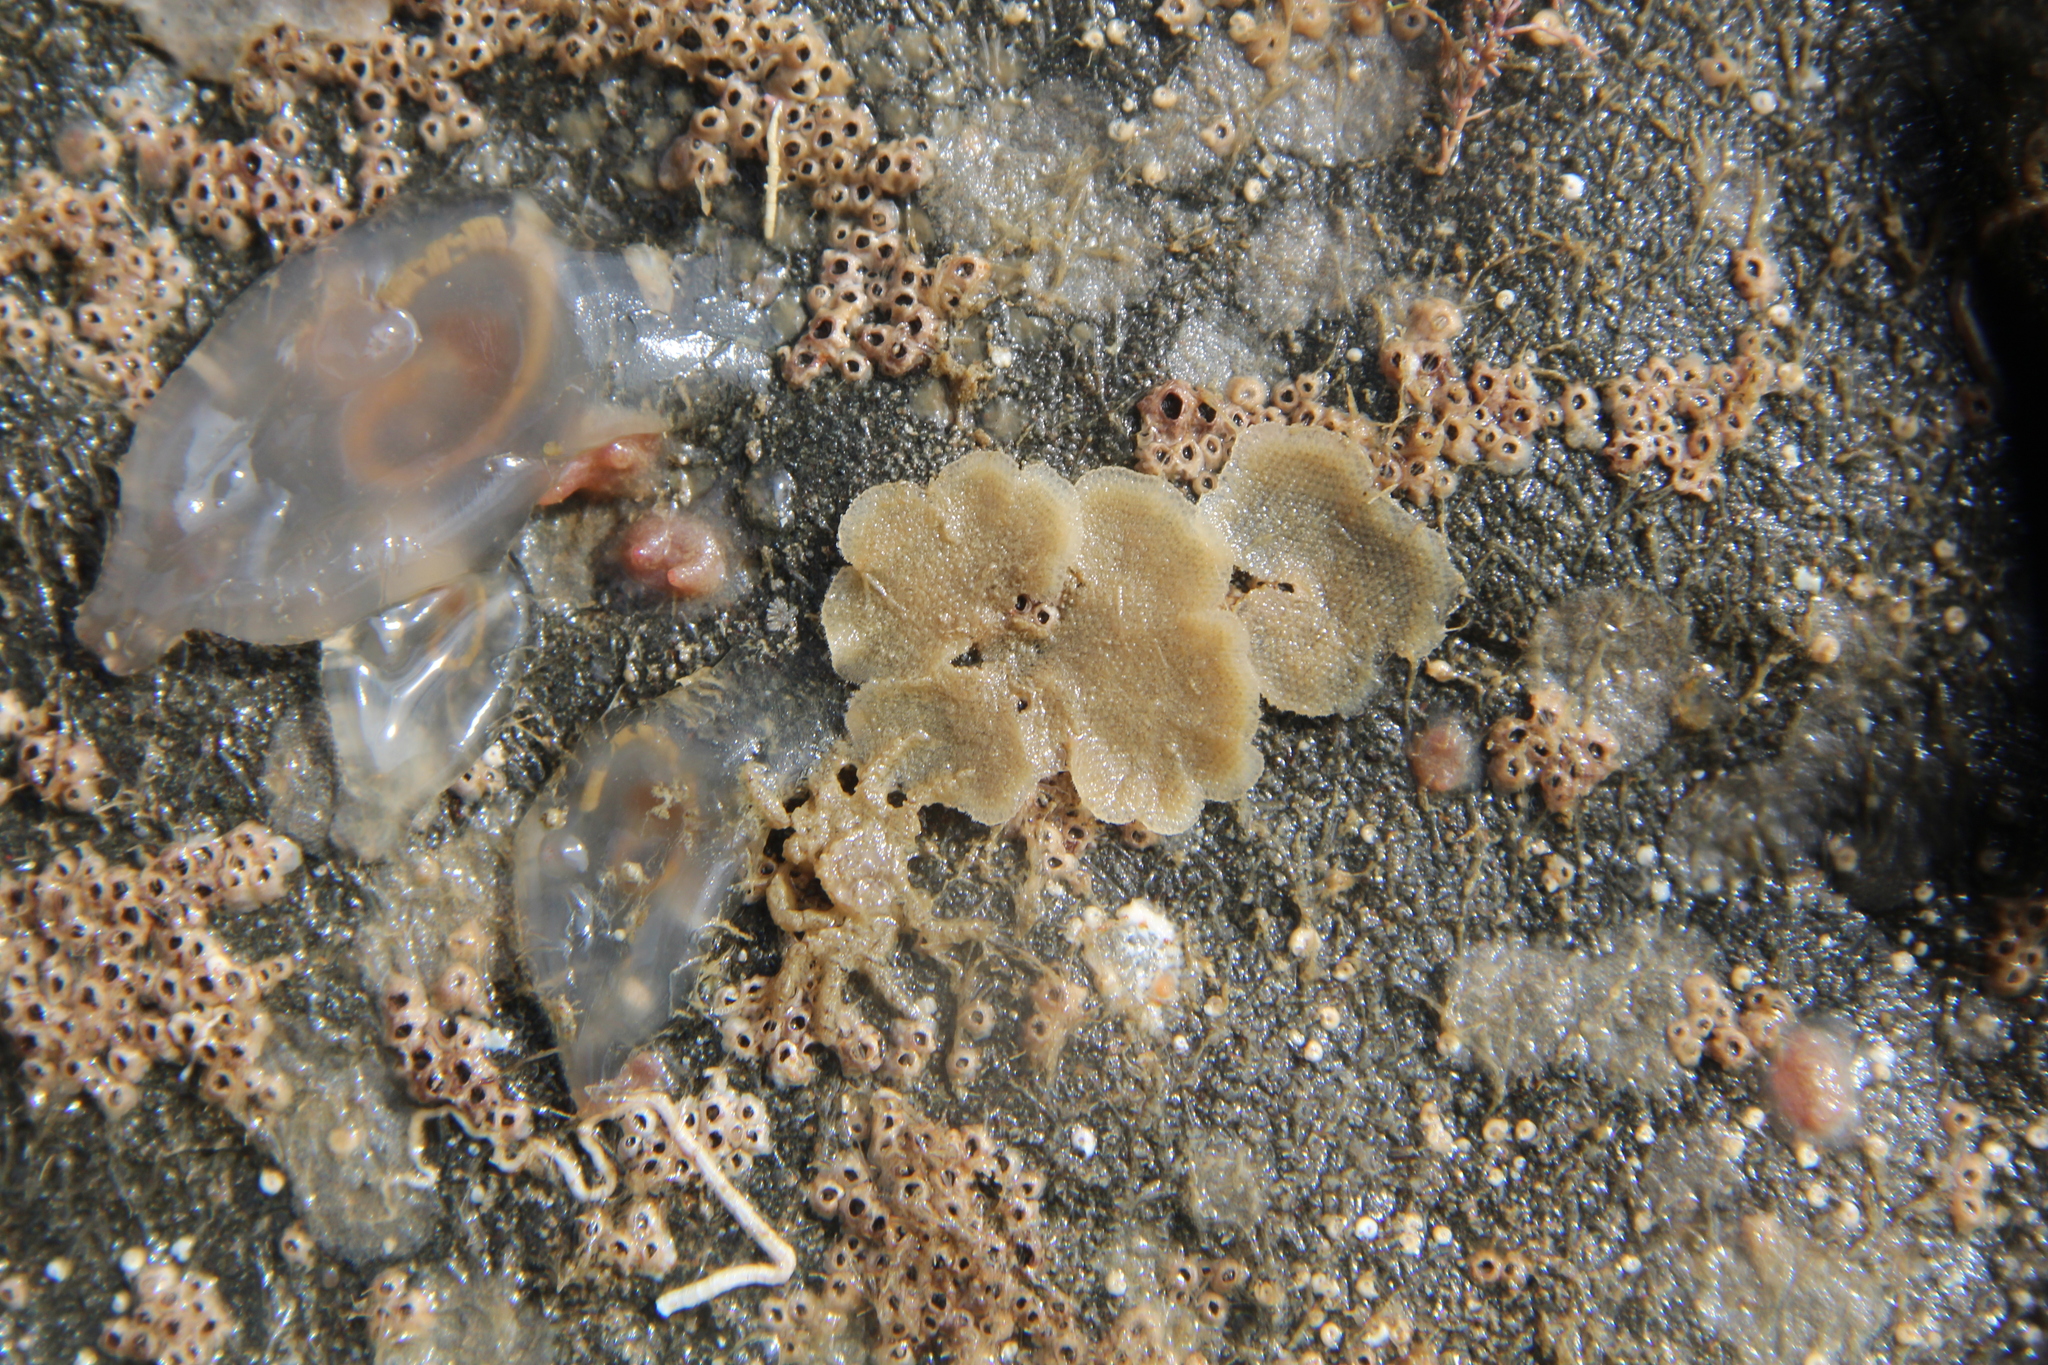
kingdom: Animalia
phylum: Bryozoa
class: Gymnolaemata
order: Cheilostomatida
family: Beaniidae
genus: Beania
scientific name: Beania magellanica
